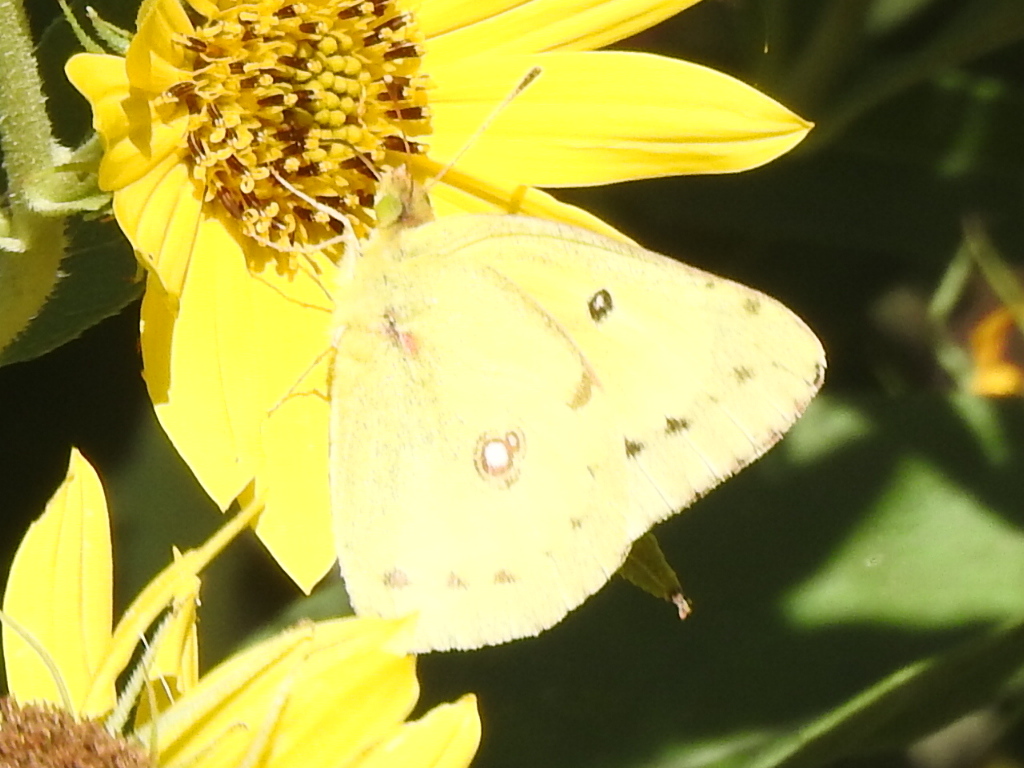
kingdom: Animalia
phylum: Arthropoda
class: Insecta
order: Lepidoptera
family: Pieridae
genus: Colias
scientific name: Colias eurytheme
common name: Alfalfa butterfly
